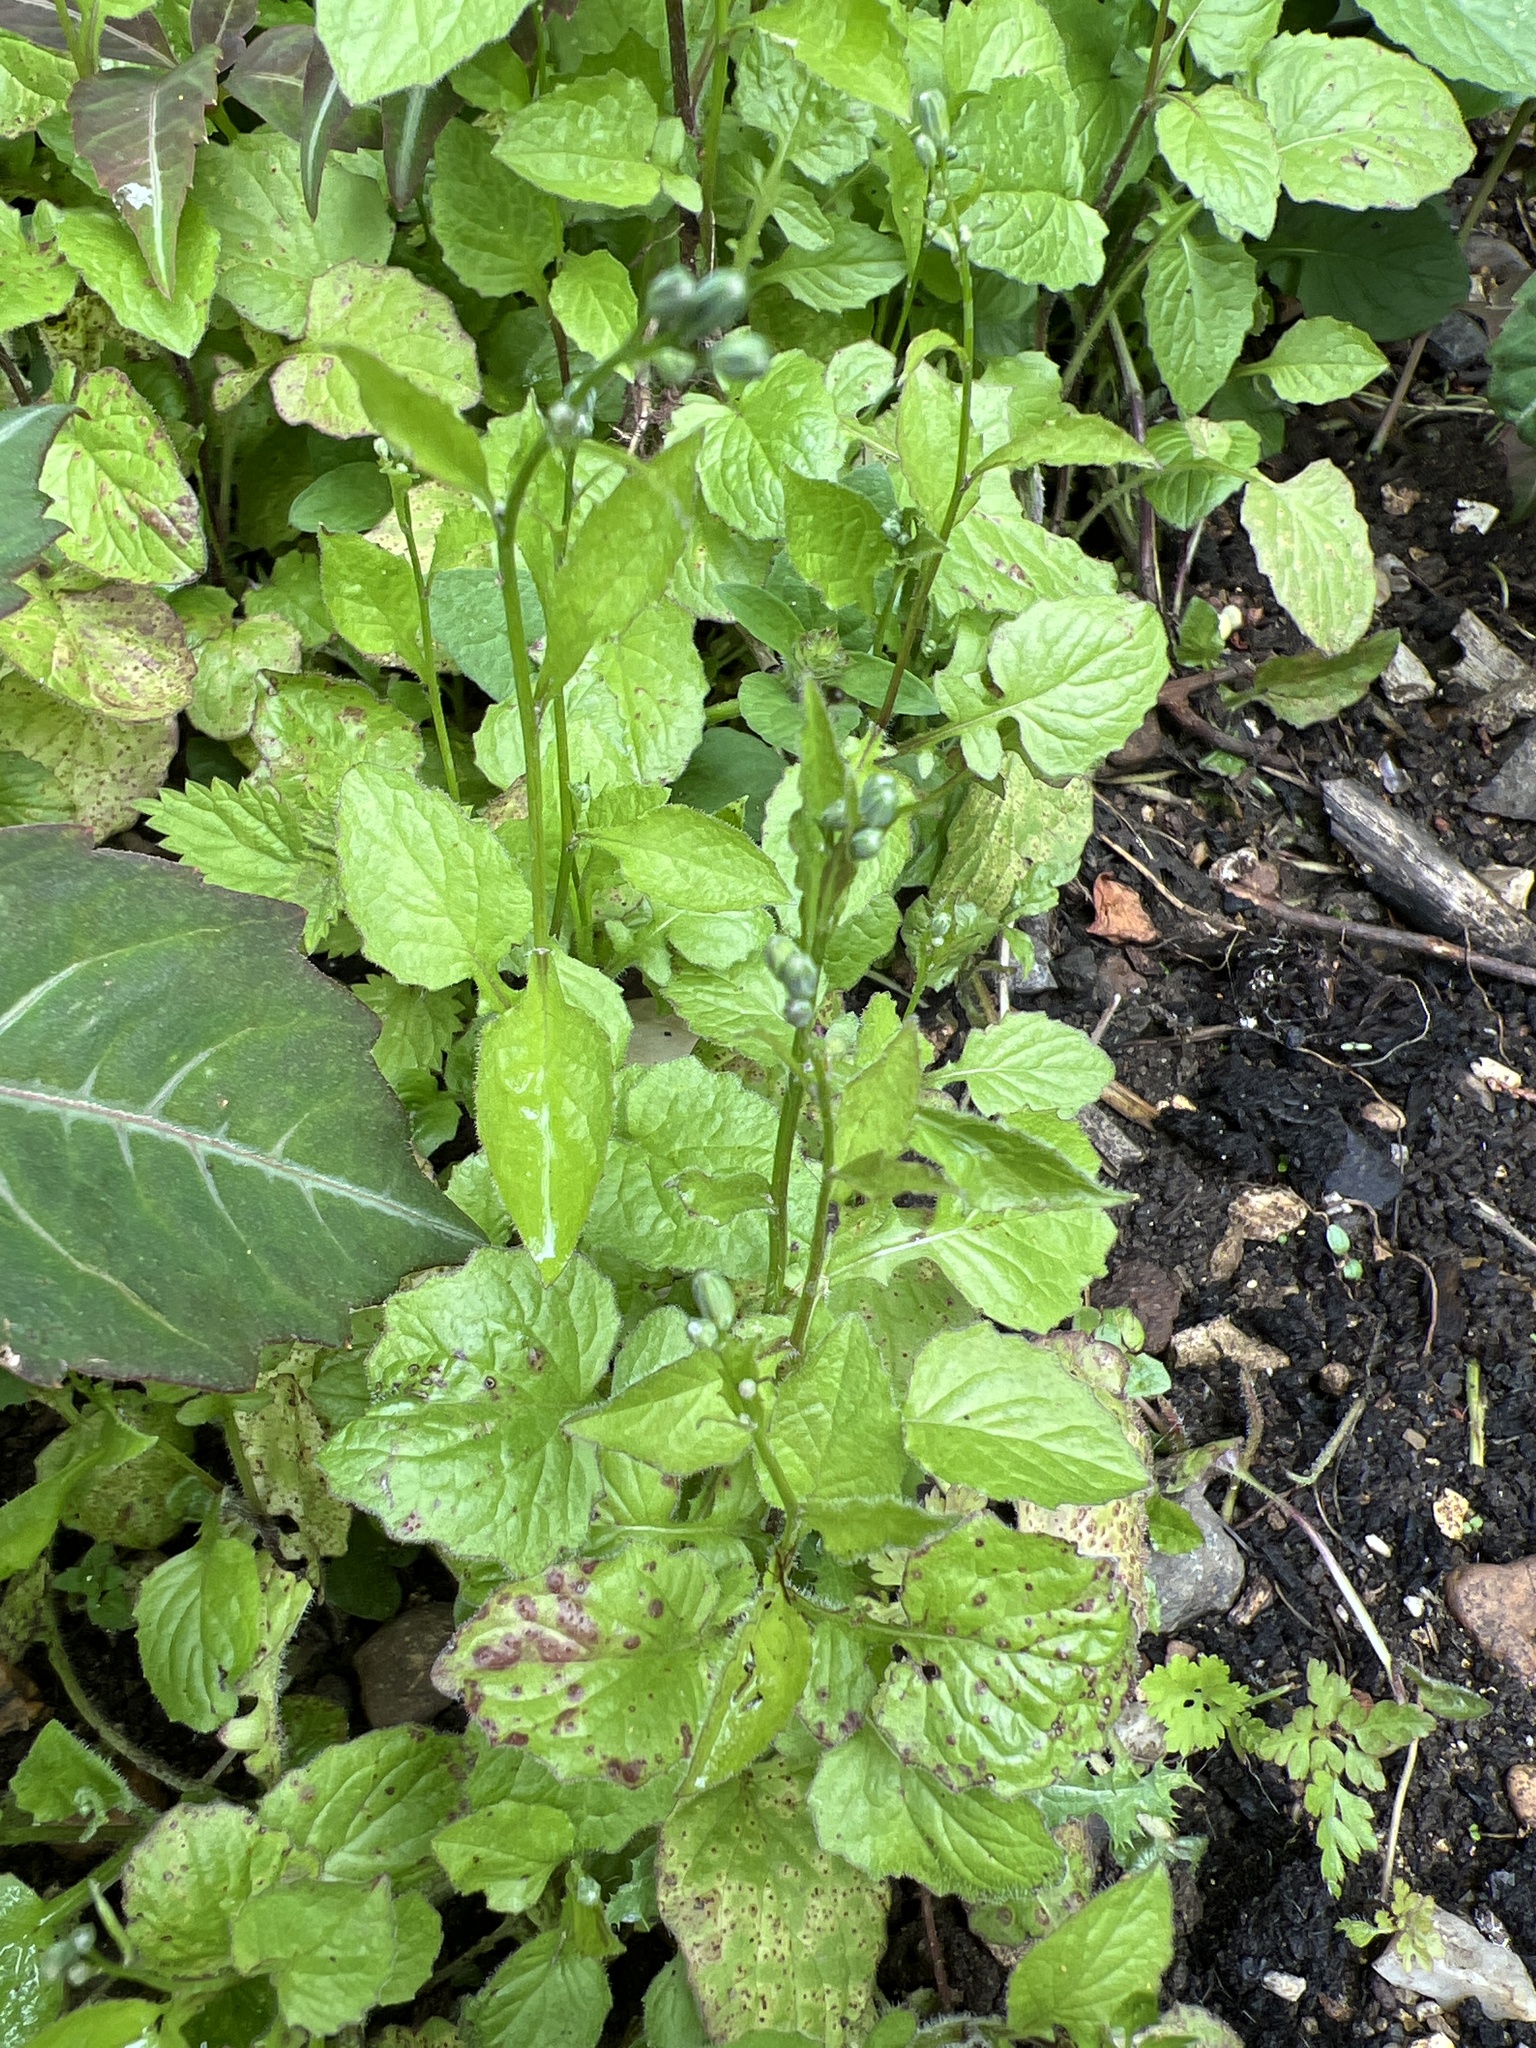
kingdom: Plantae
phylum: Tracheophyta
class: Magnoliopsida
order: Asterales
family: Asteraceae
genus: Lapsana
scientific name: Lapsana communis
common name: Nipplewort
